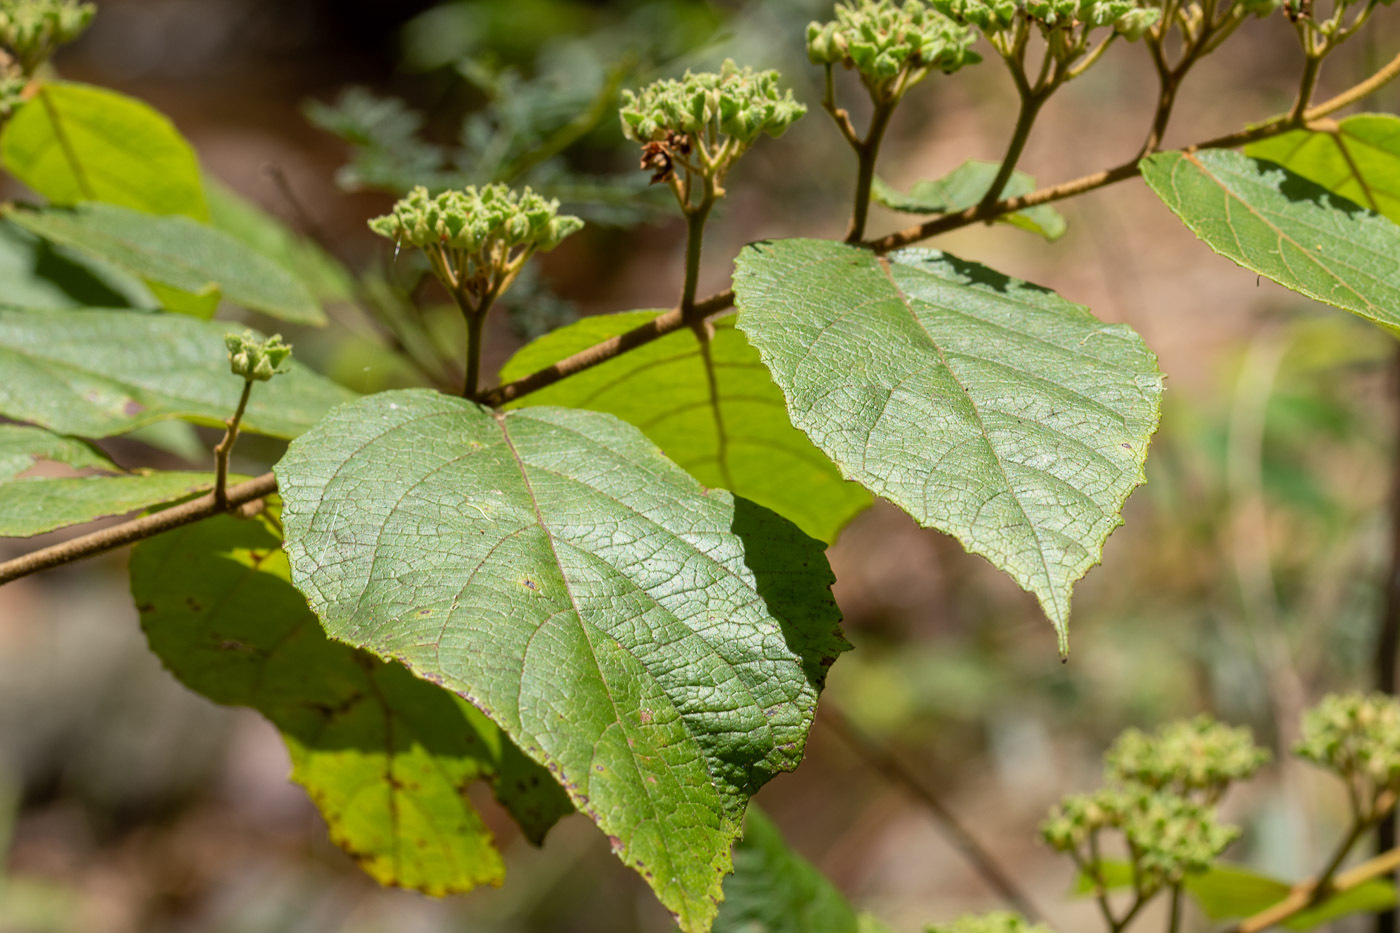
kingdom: Plantae
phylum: Tracheophyta
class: Magnoliopsida
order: Malvales
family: Malvaceae
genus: Commersonia
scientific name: Commersonia bartramia
